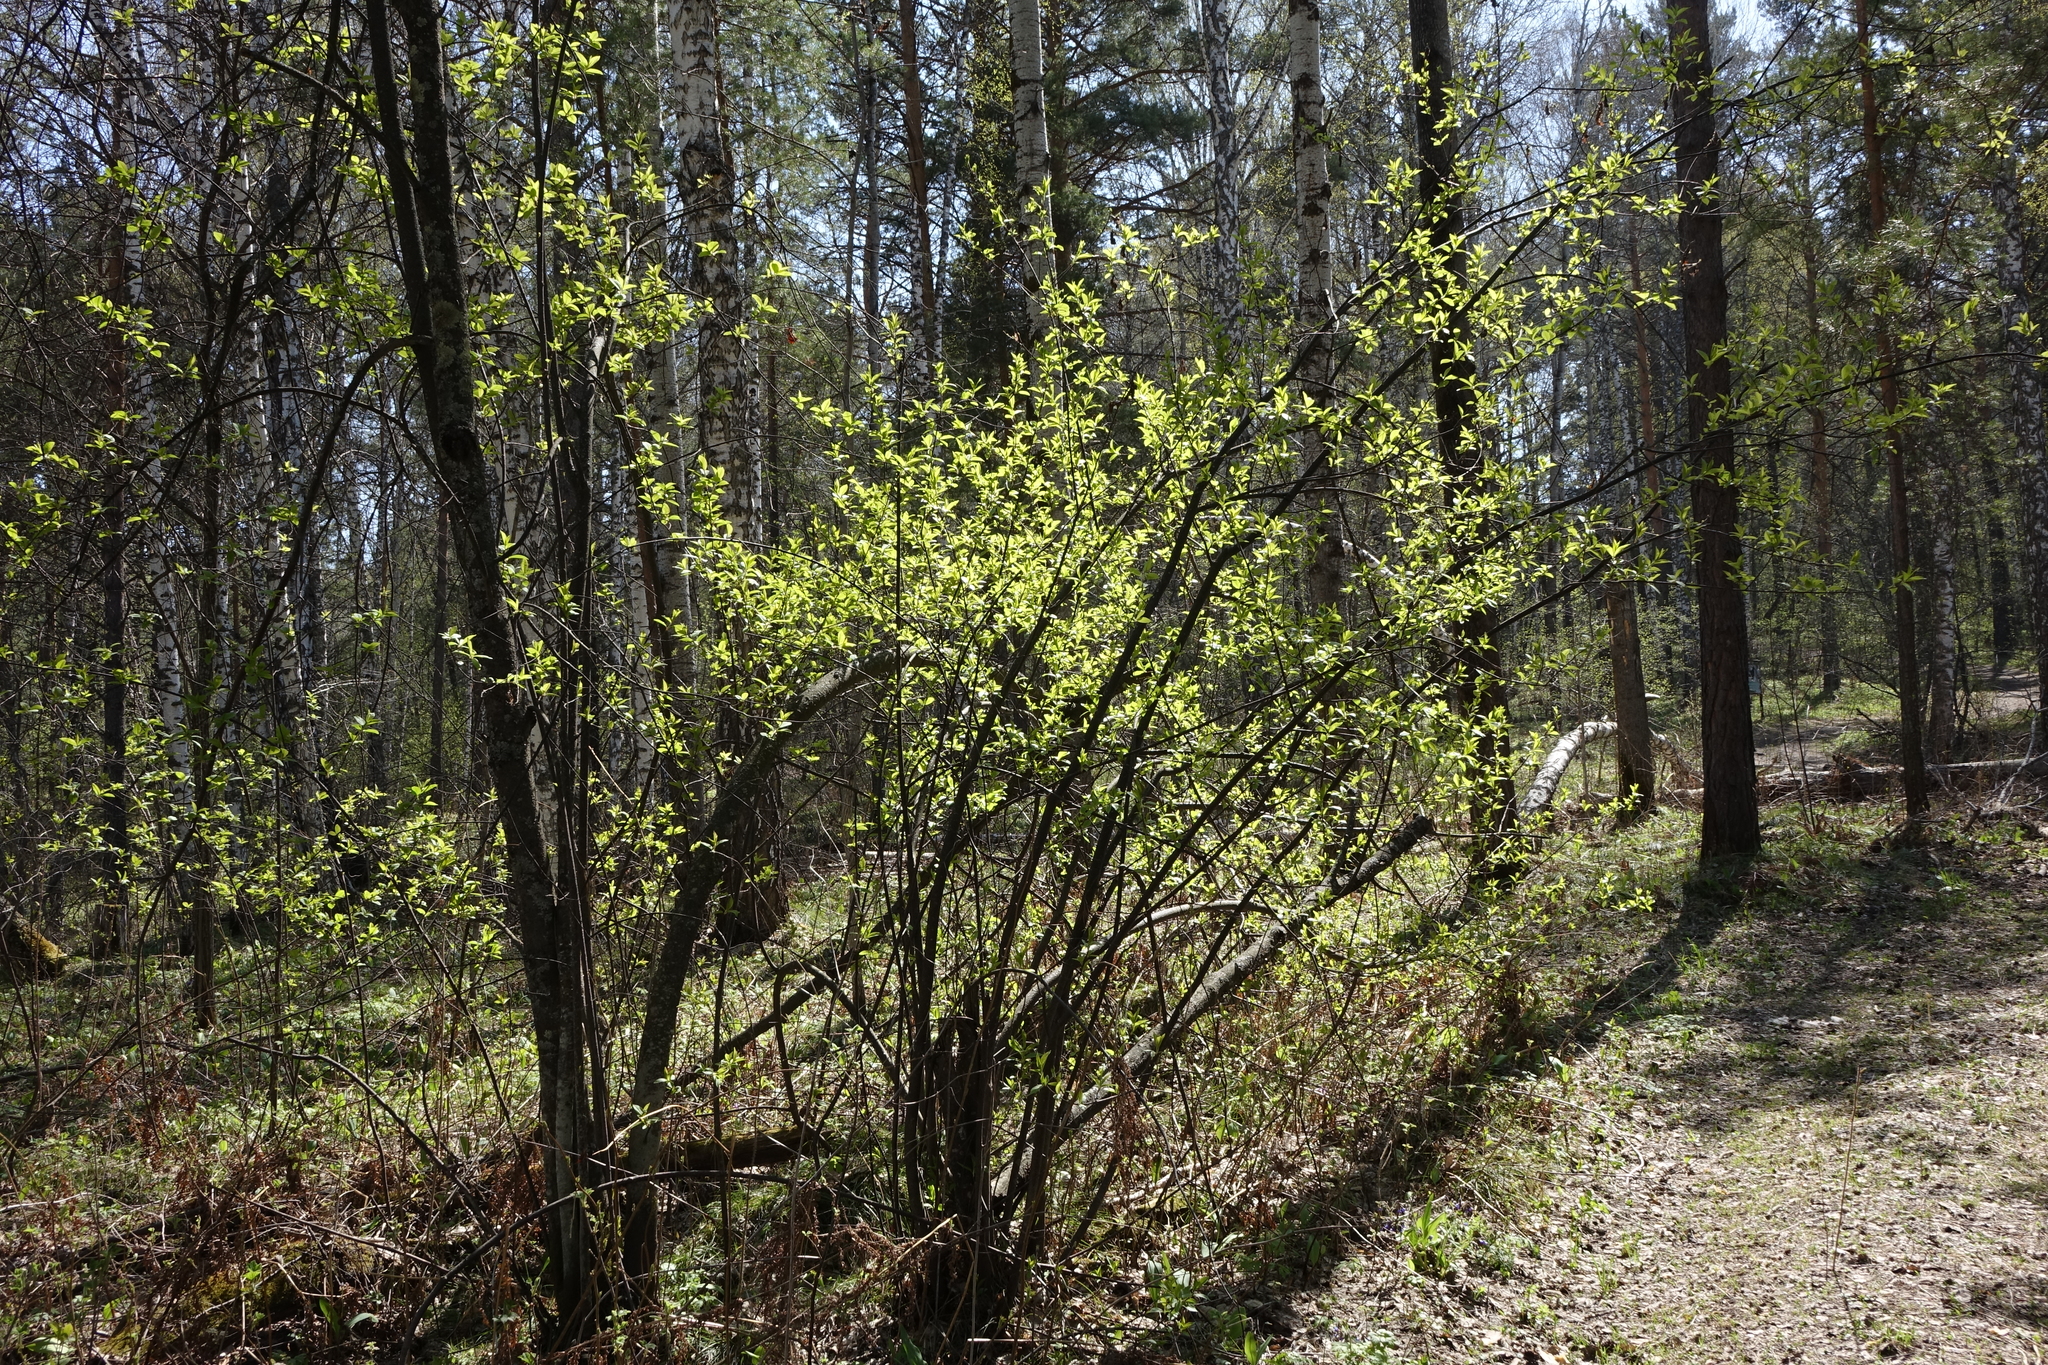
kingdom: Plantae
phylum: Tracheophyta
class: Magnoliopsida
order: Rosales
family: Rosaceae
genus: Prunus
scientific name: Prunus padus
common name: Bird cherry
